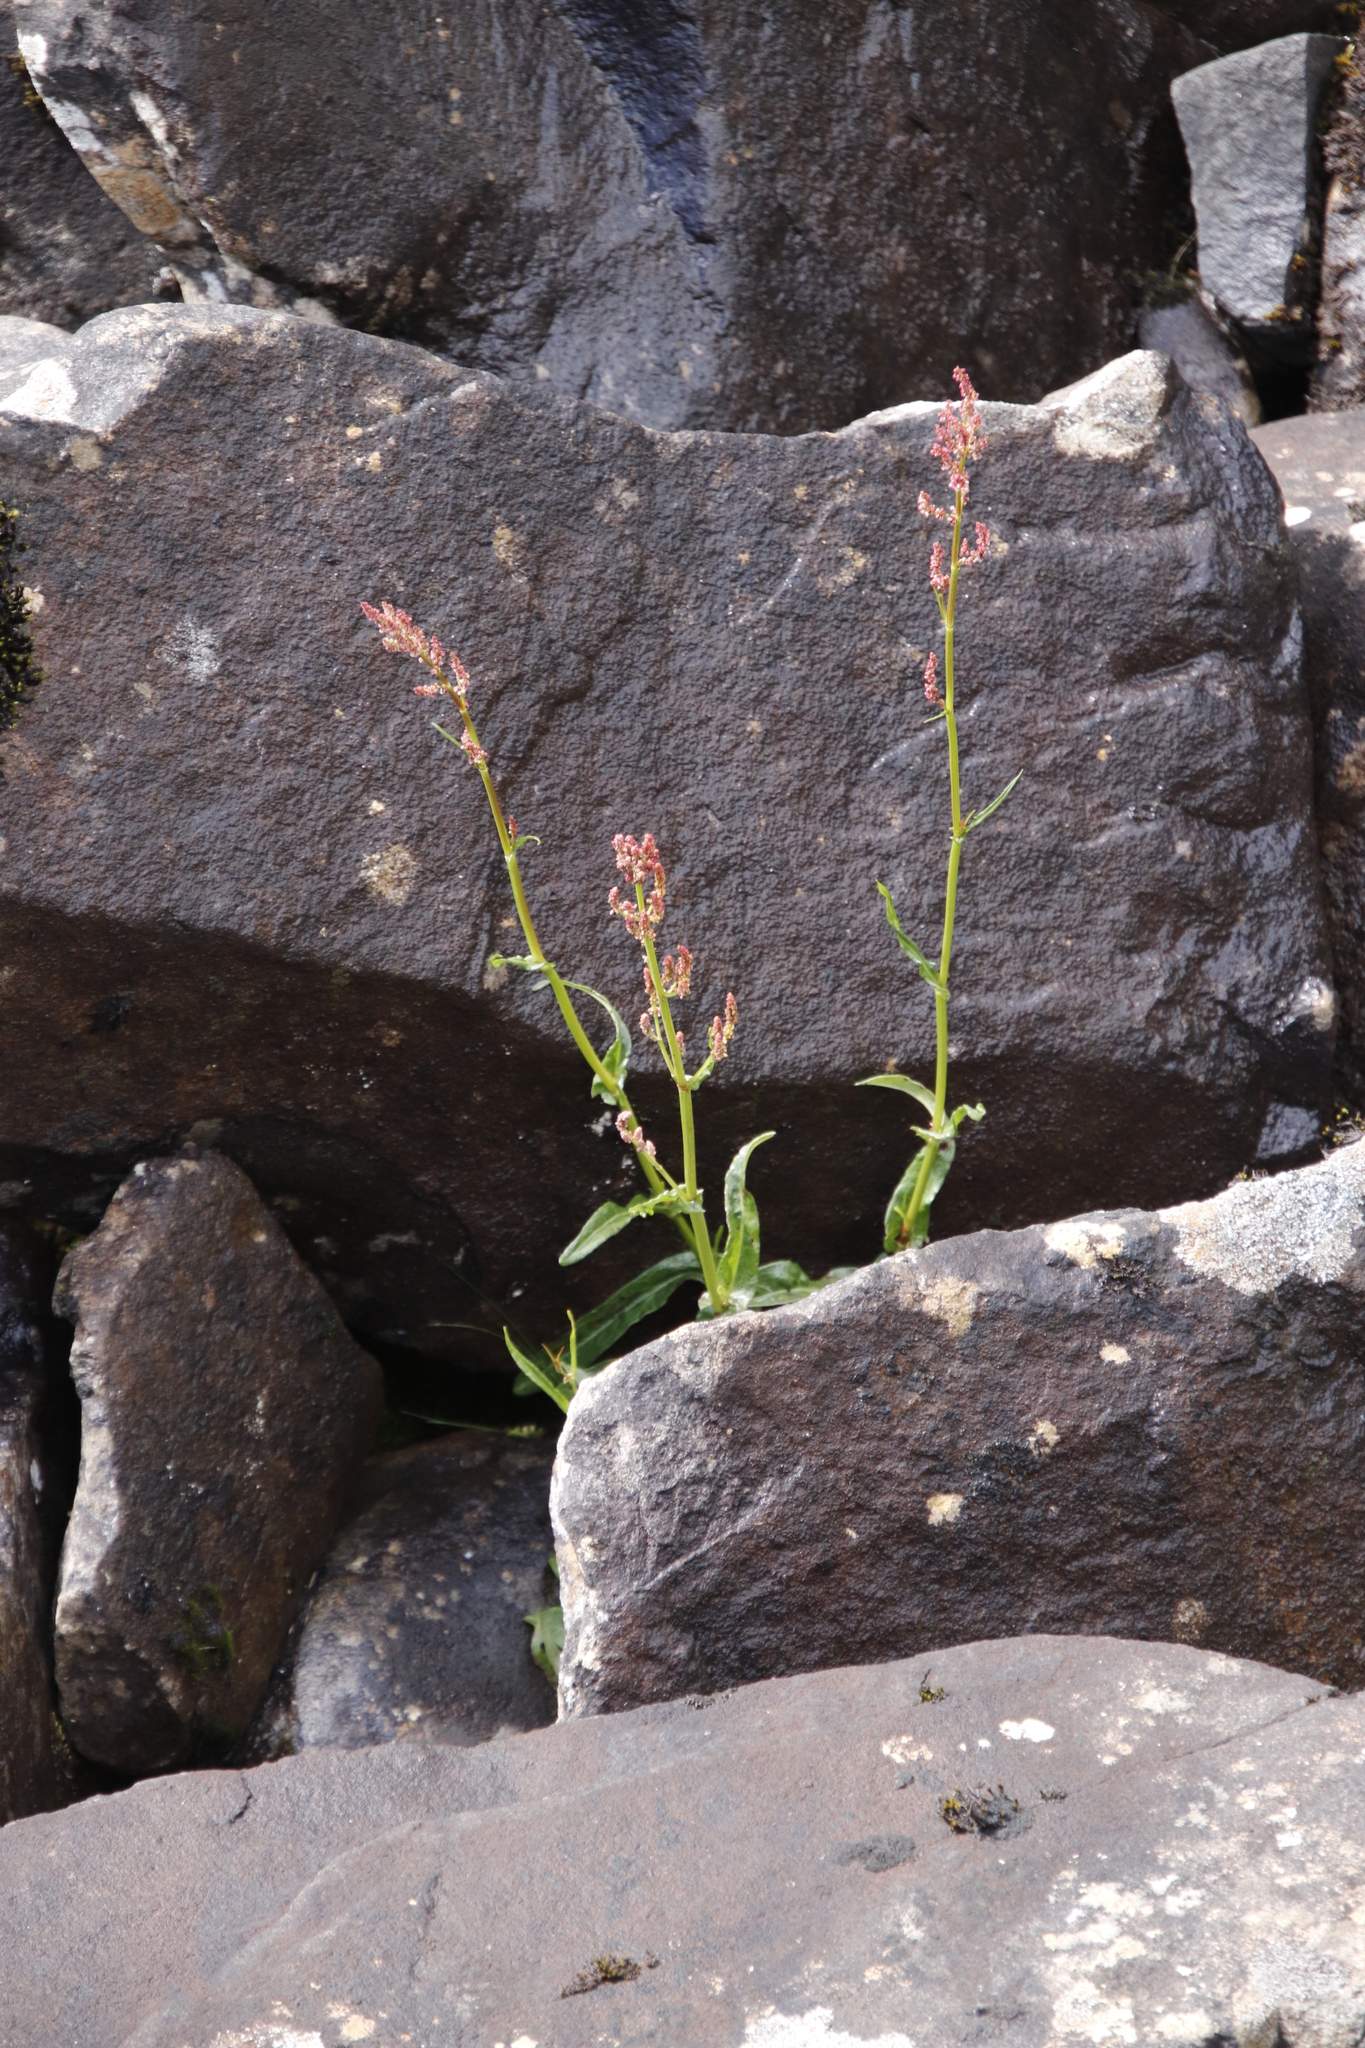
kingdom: Plantae
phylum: Tracheophyta
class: Magnoliopsida
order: Caryophyllales
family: Polygonaceae
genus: Rumex
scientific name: Rumex acetosa
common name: Garden sorrel
